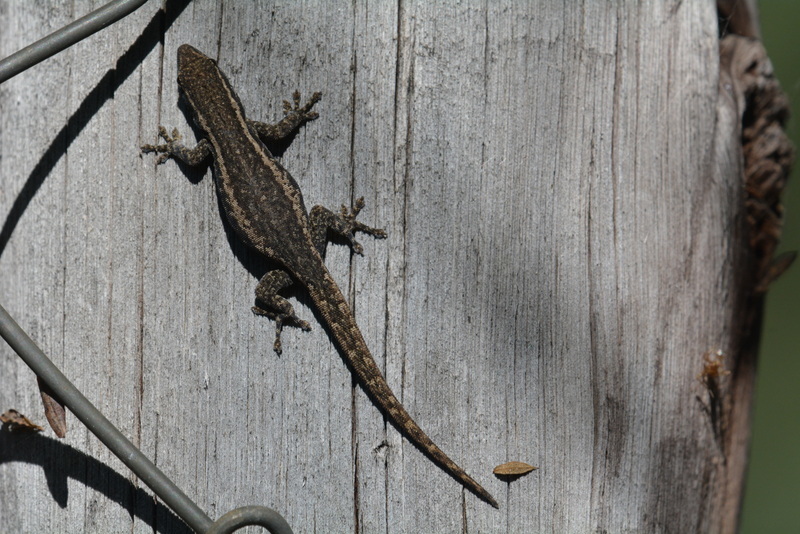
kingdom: Animalia
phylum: Chordata
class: Squamata
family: Gekkonidae
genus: Lygodactylus
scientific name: Lygodactylus capensis
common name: Cape dwarf gecko
